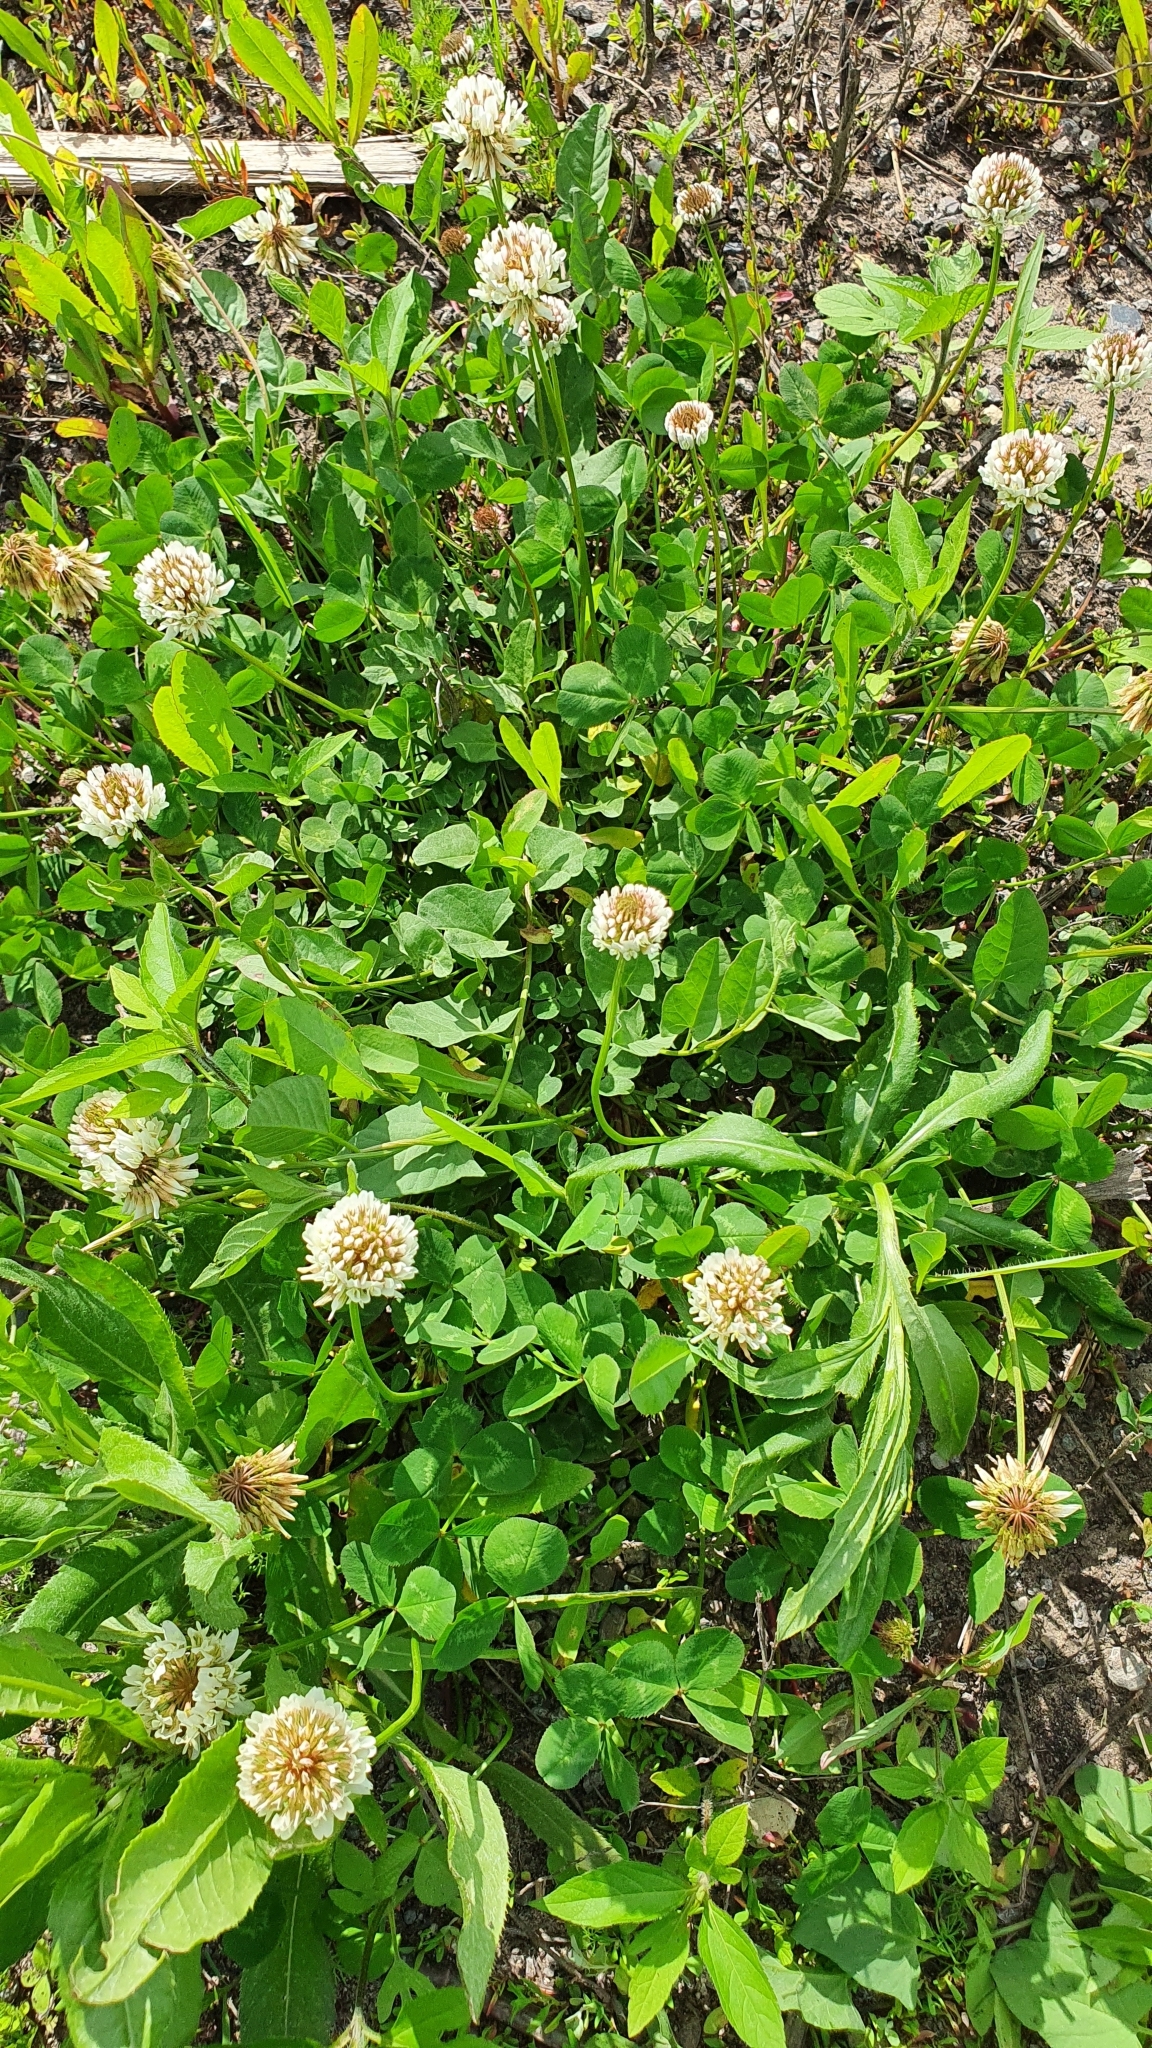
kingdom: Plantae
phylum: Tracheophyta
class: Magnoliopsida
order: Fabales
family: Fabaceae
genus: Trifolium
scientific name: Trifolium repens
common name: White clover
